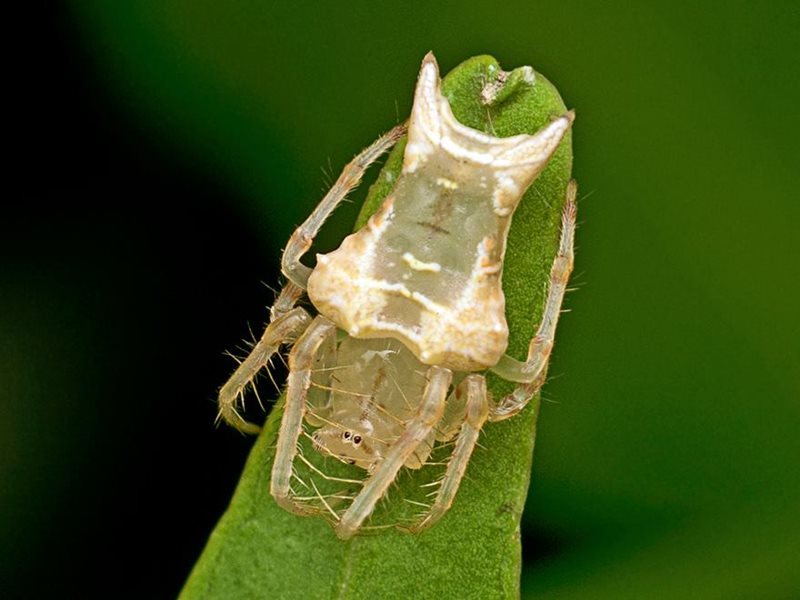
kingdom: Animalia
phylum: Arthropoda
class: Arachnida
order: Araneae
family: Arkyidae
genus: Arkys
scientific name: Arkys furcatus
